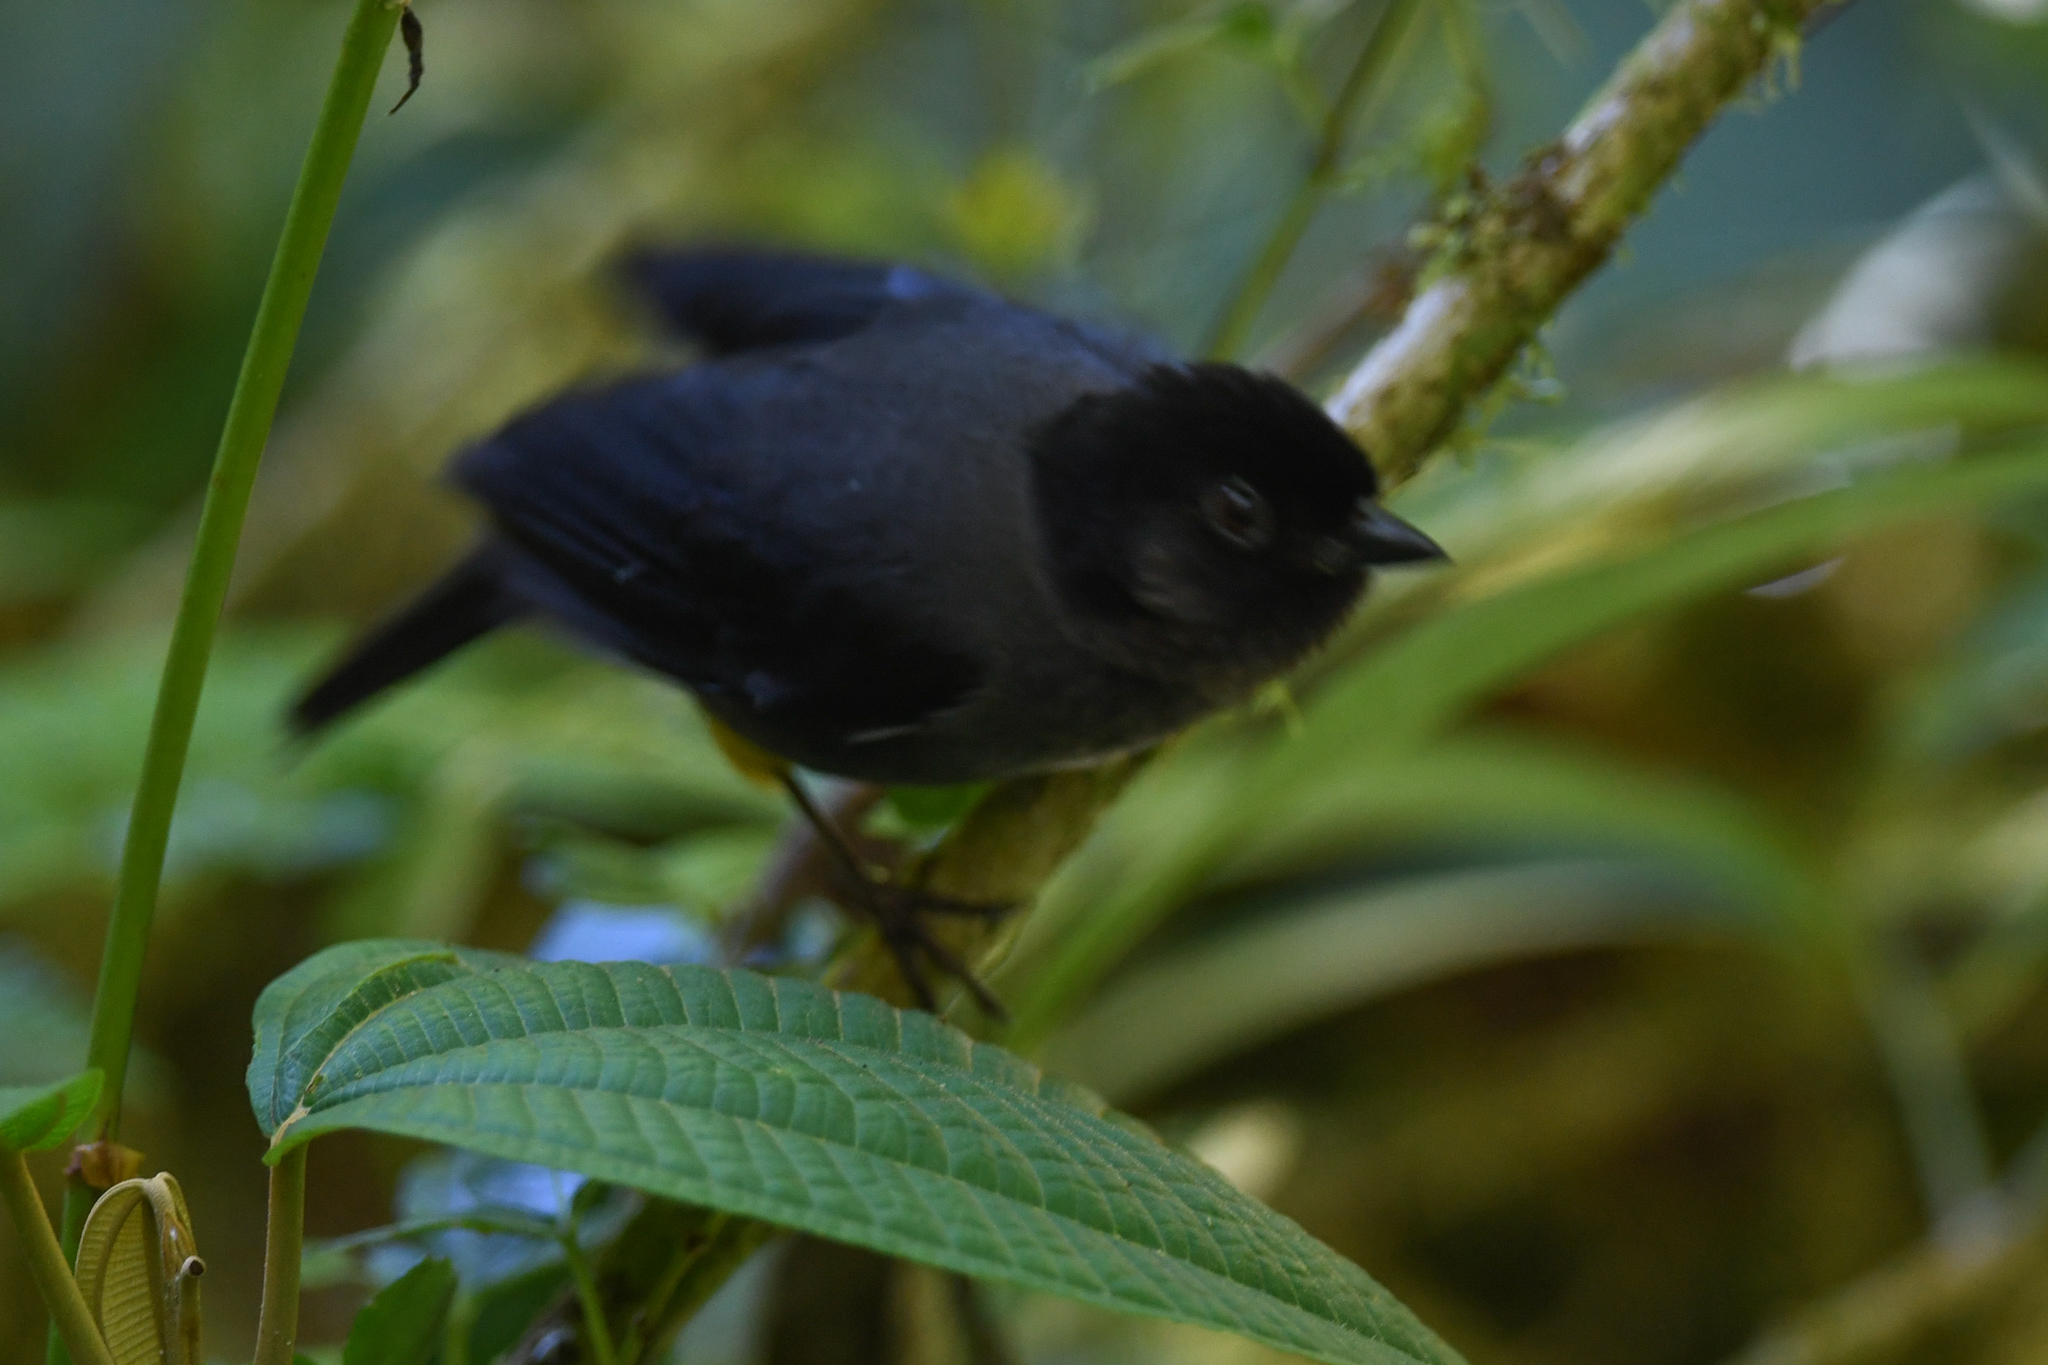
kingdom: Animalia
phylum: Chordata
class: Aves
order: Passeriformes
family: Passerellidae
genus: Atlapetes
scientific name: Atlapetes tibialis
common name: Yellow-thighed brushfinch
